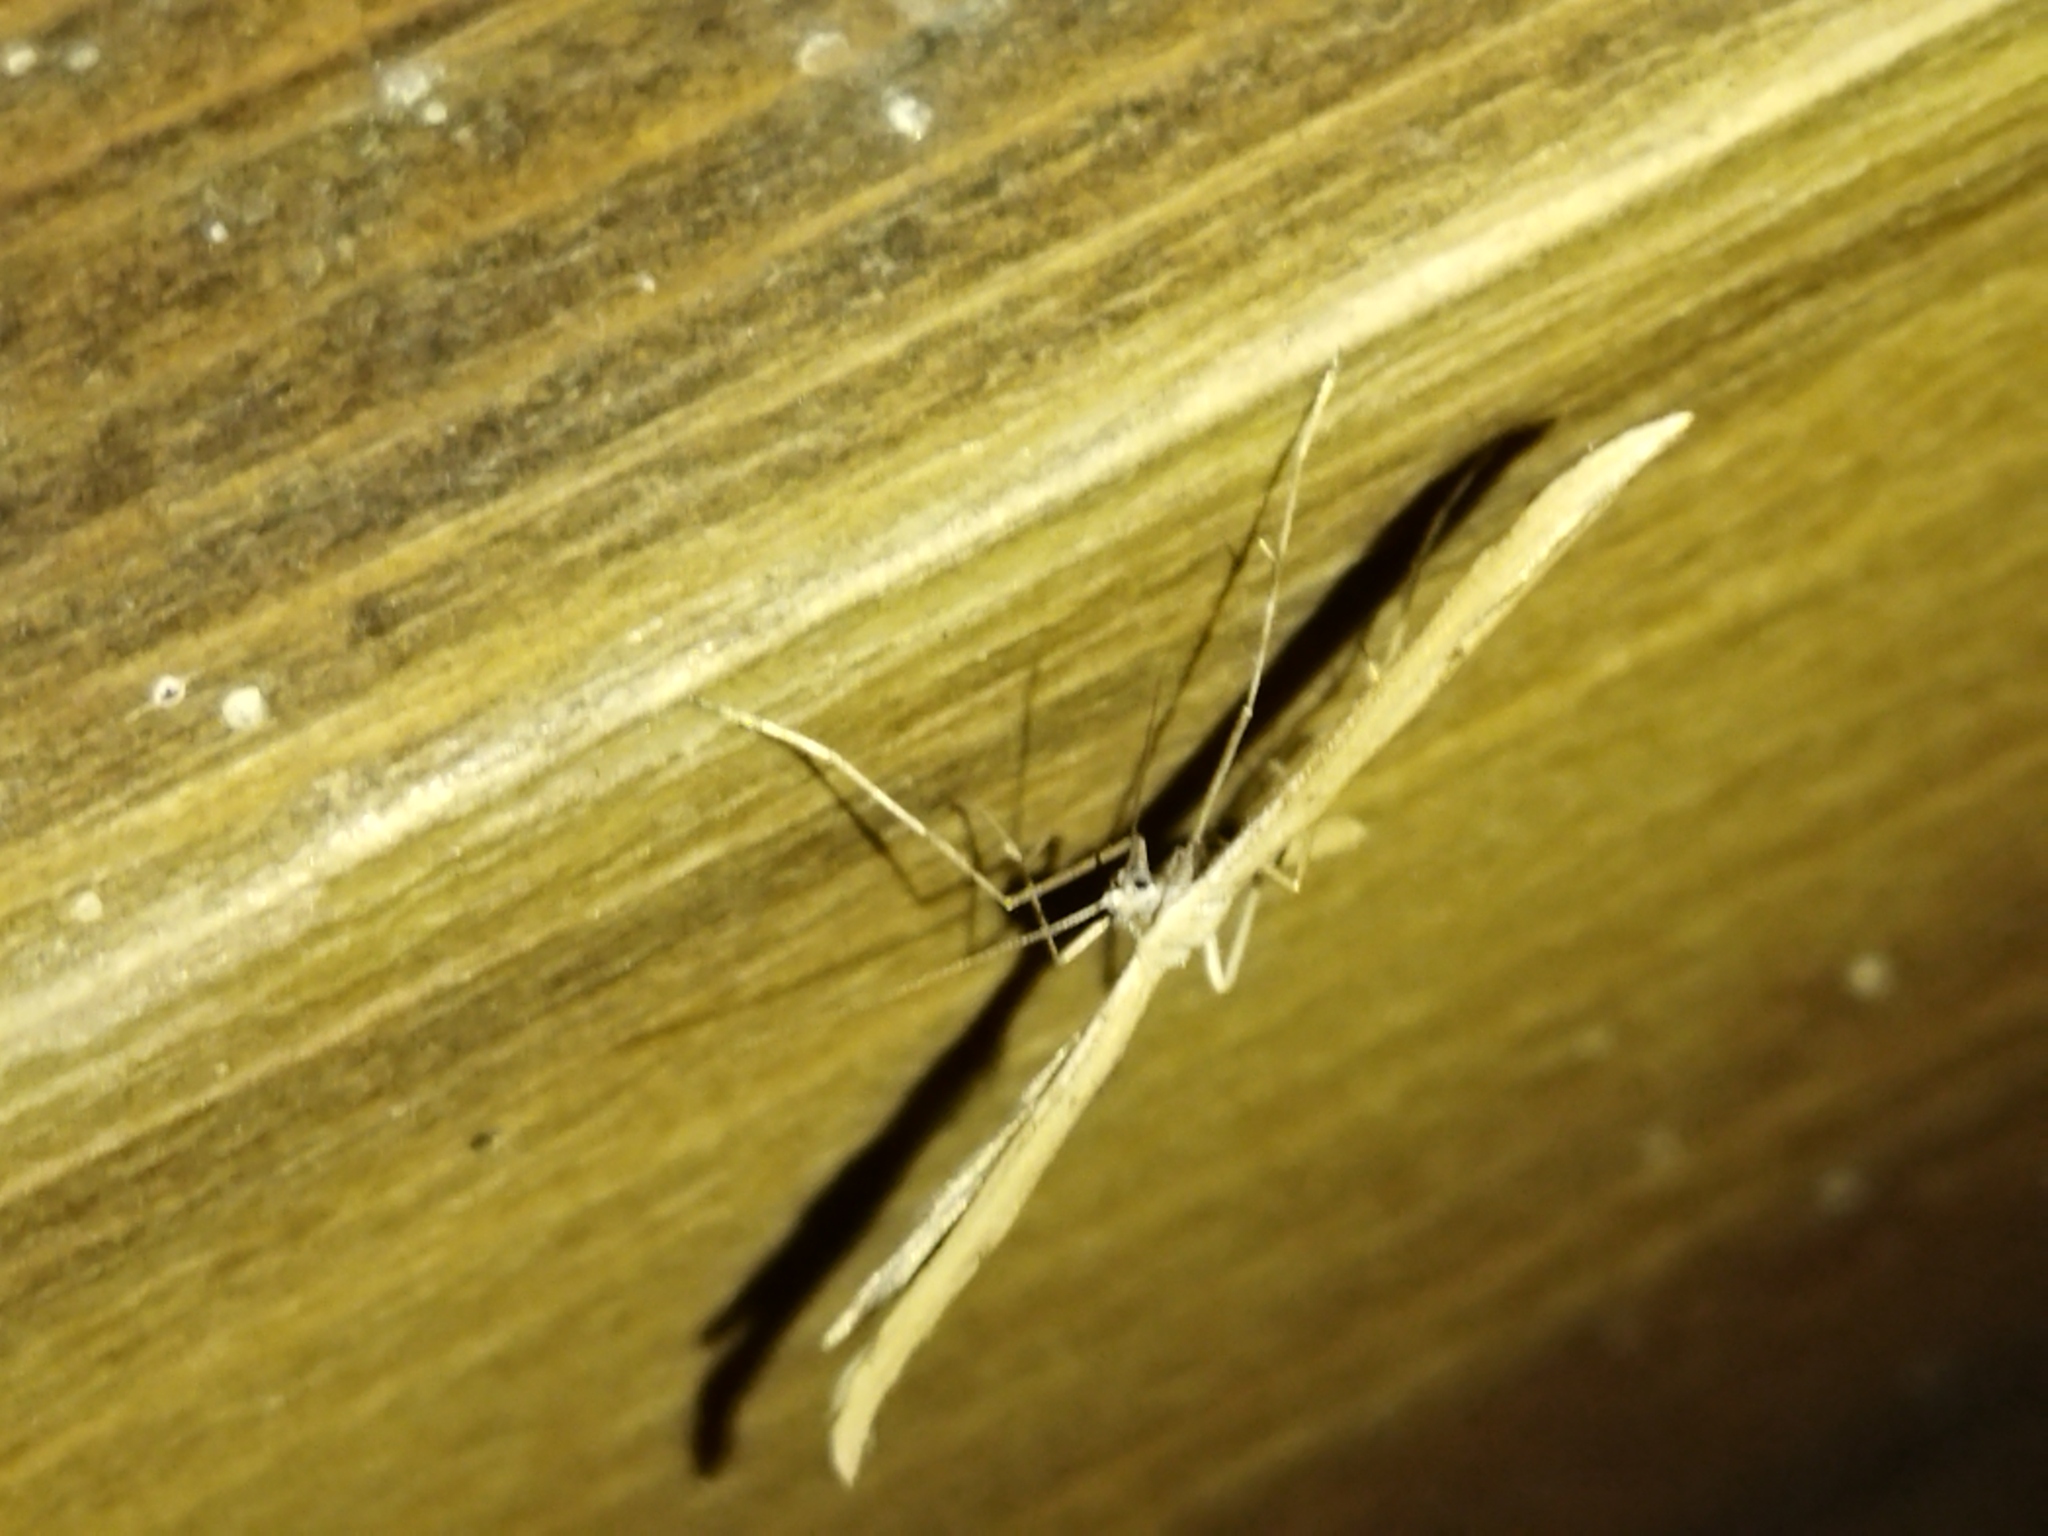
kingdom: Animalia
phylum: Arthropoda
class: Insecta
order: Lepidoptera
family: Pterophoridae
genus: Emmelina
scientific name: Emmelina monodactyla
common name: Common plume
